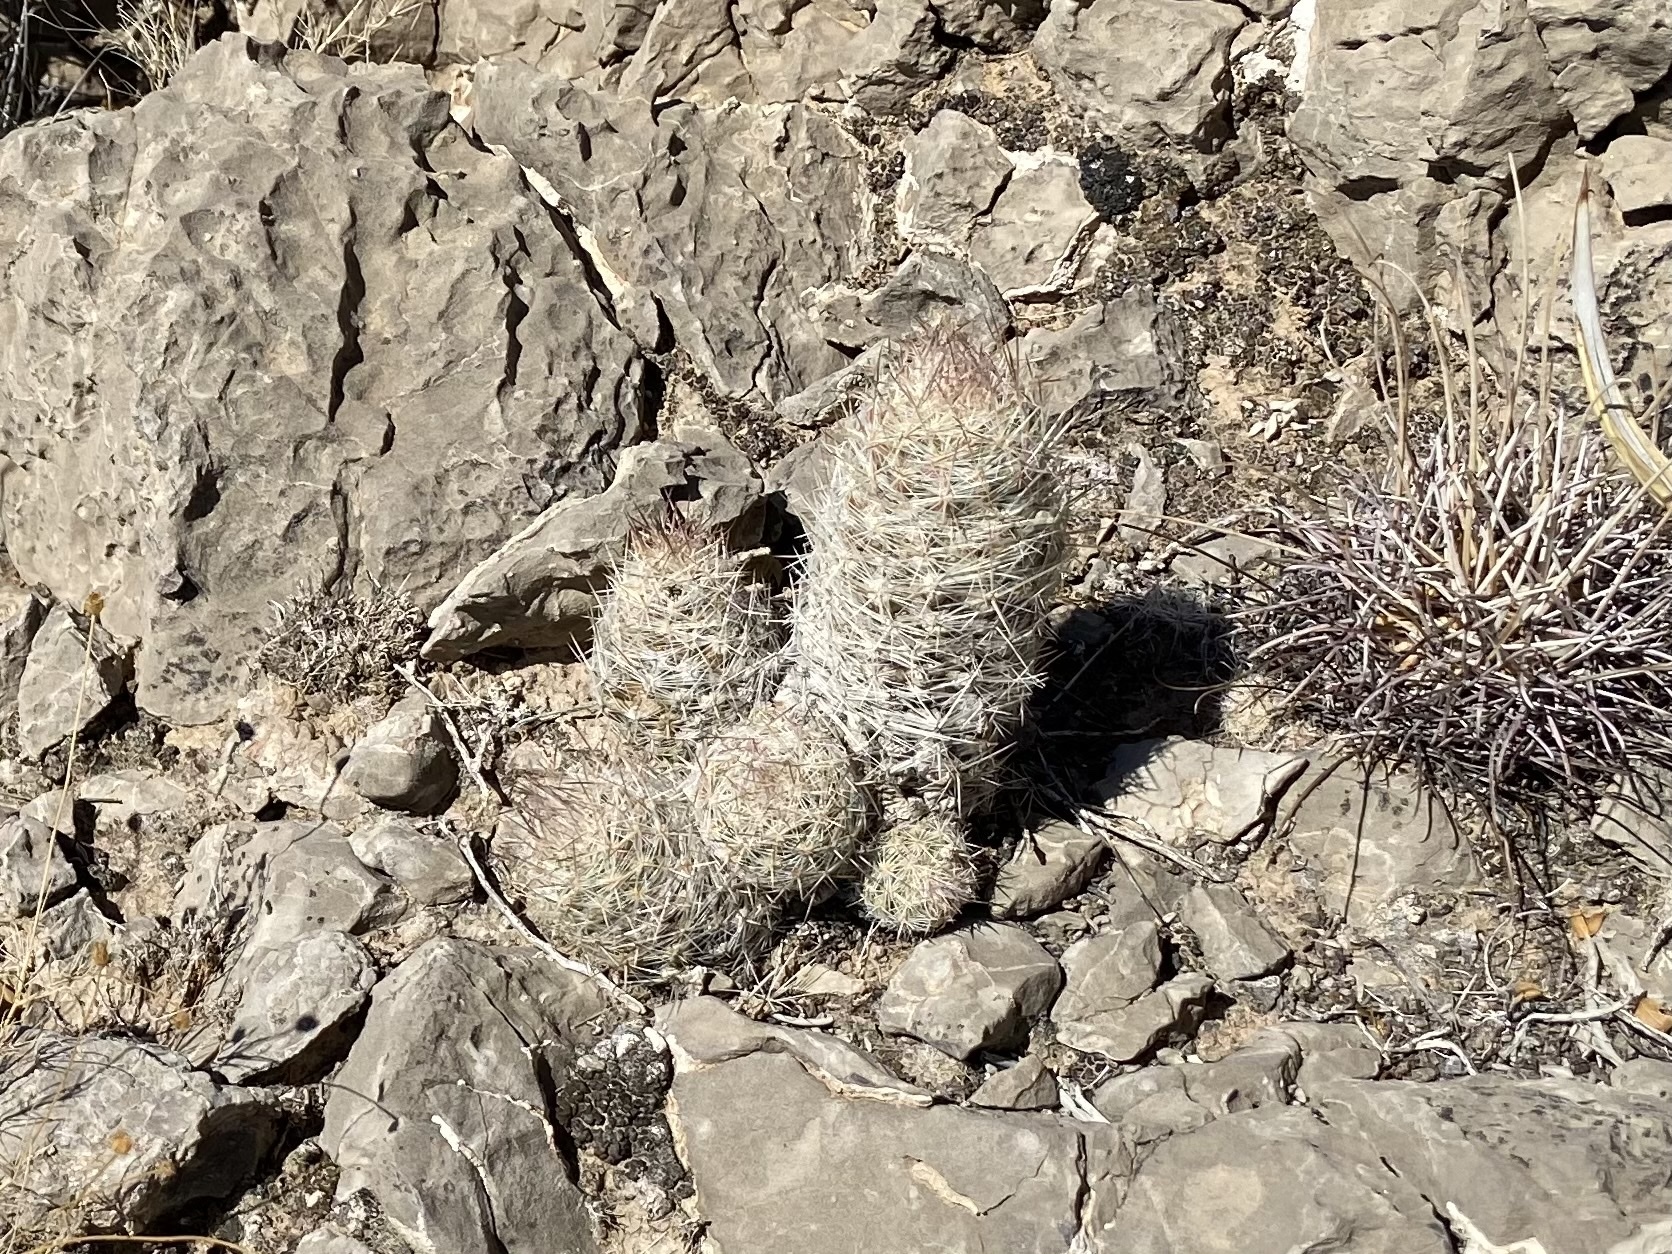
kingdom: Plantae
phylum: Tracheophyta
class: Magnoliopsida
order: Caryophyllales
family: Cactaceae
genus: Pelecyphora
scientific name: Pelecyphora tuberculosa
